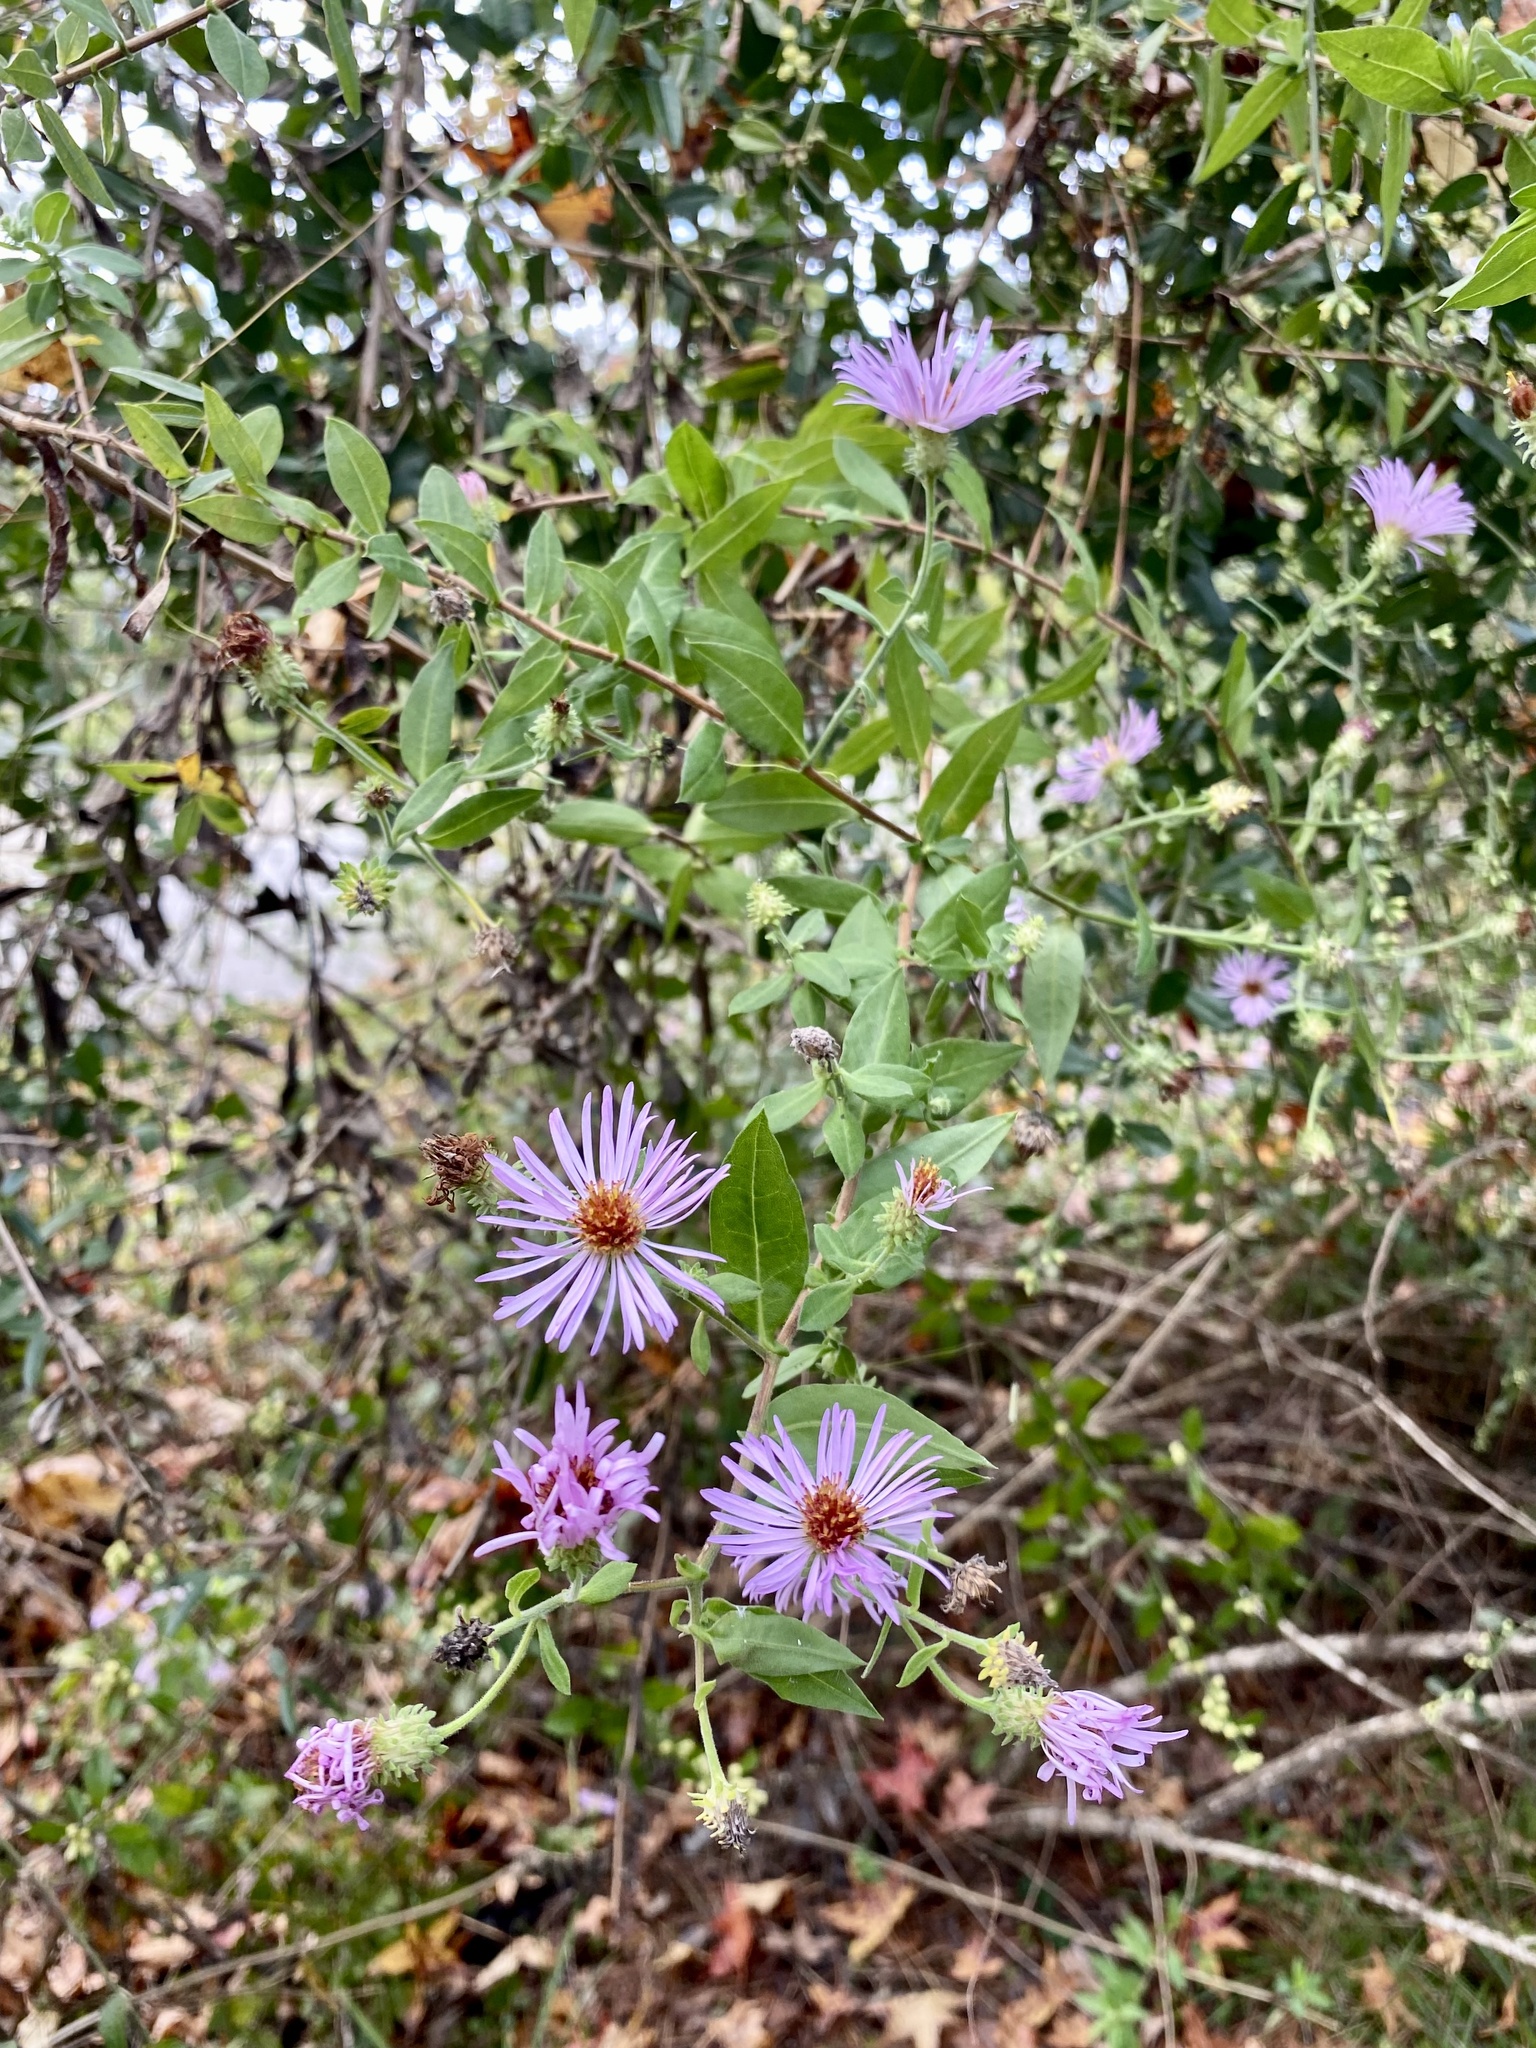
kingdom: Plantae
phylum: Tracheophyta
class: Magnoliopsida
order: Asterales
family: Asteraceae
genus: Ampelaster
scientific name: Ampelaster carolinianus
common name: Climbing aster
